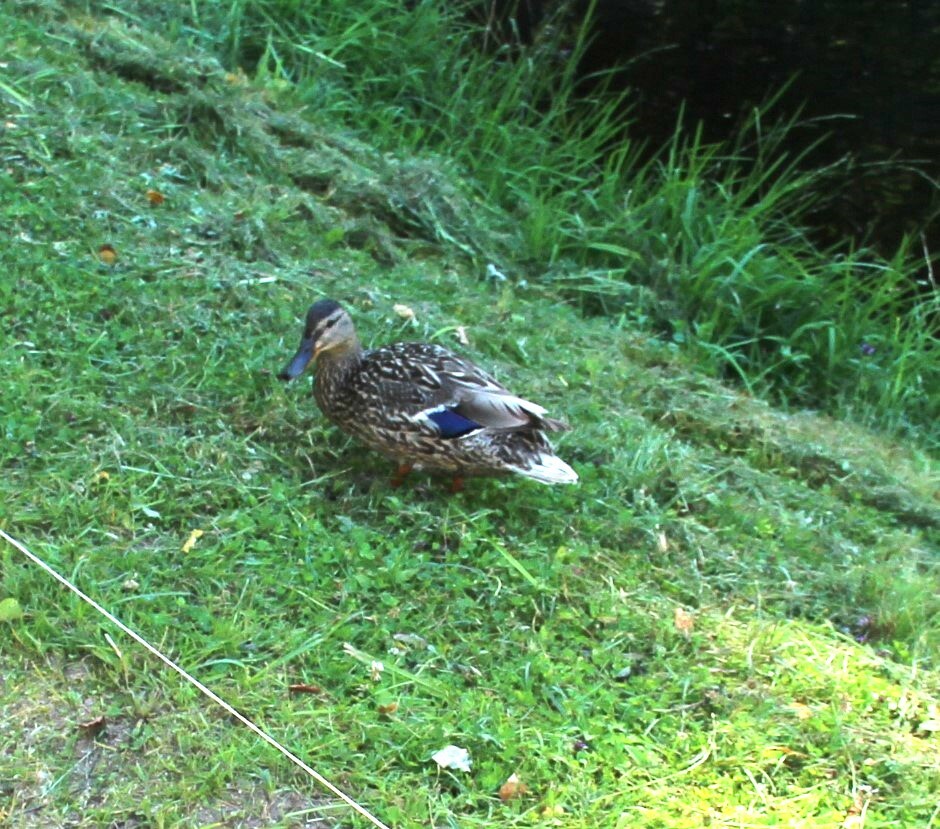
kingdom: Animalia
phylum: Chordata
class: Aves
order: Anseriformes
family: Anatidae
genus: Anas
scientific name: Anas platyrhynchos
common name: Mallard
